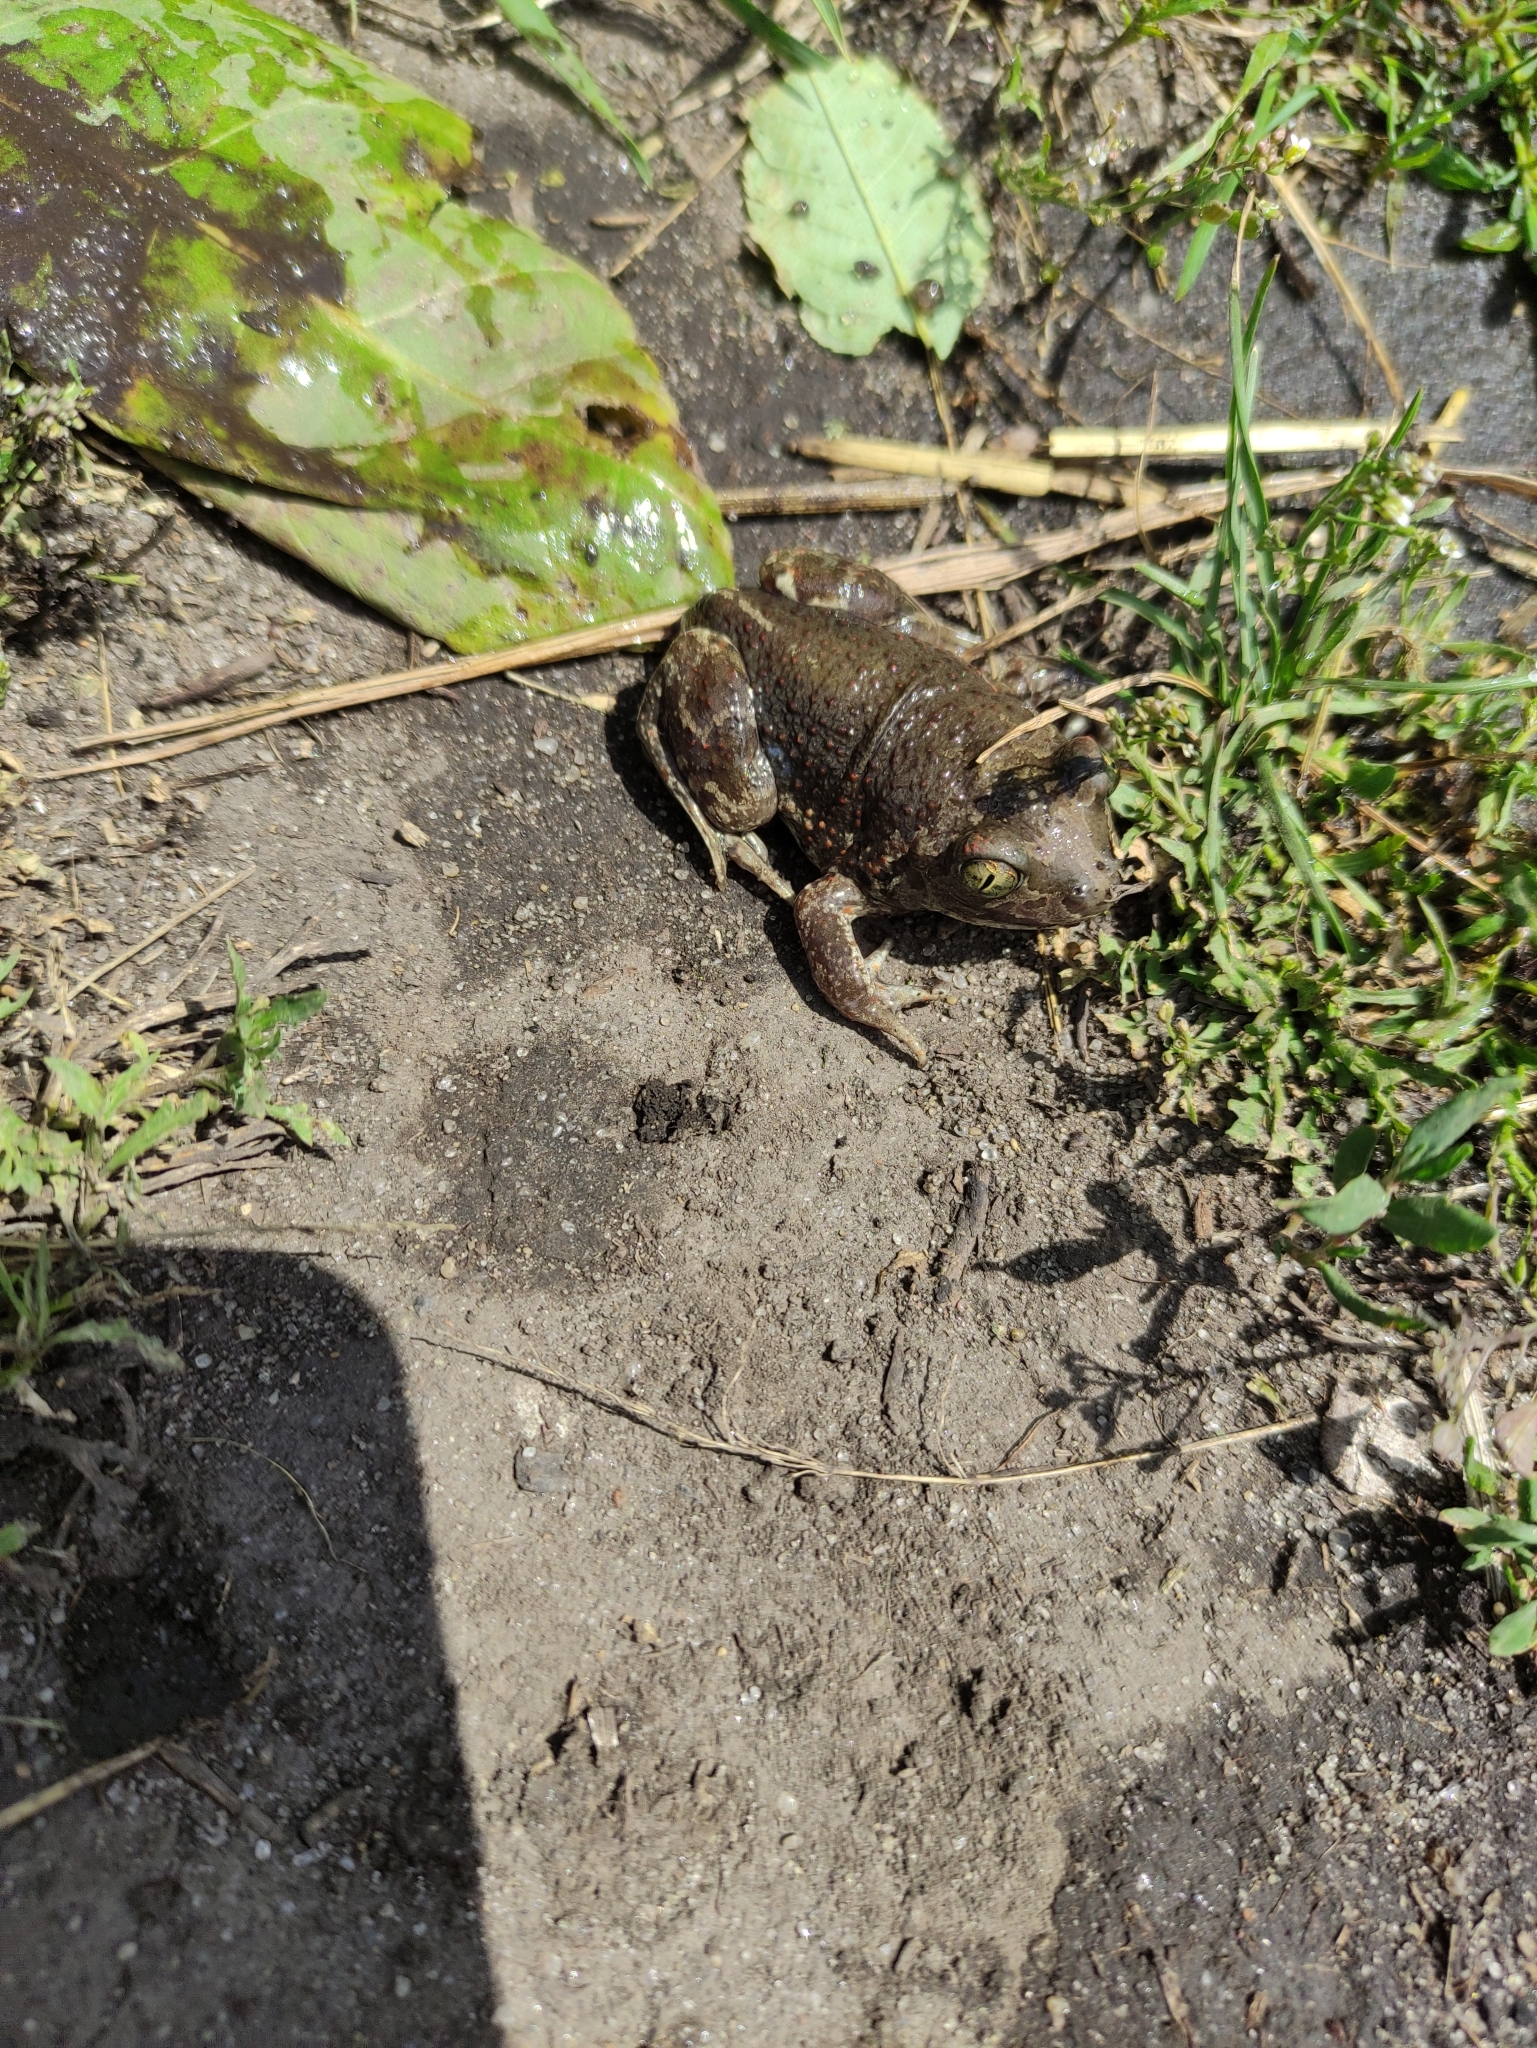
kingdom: Animalia
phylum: Chordata
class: Amphibia
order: Anura
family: Pelobatidae
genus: Pelobates
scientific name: Pelobates vespertinus
